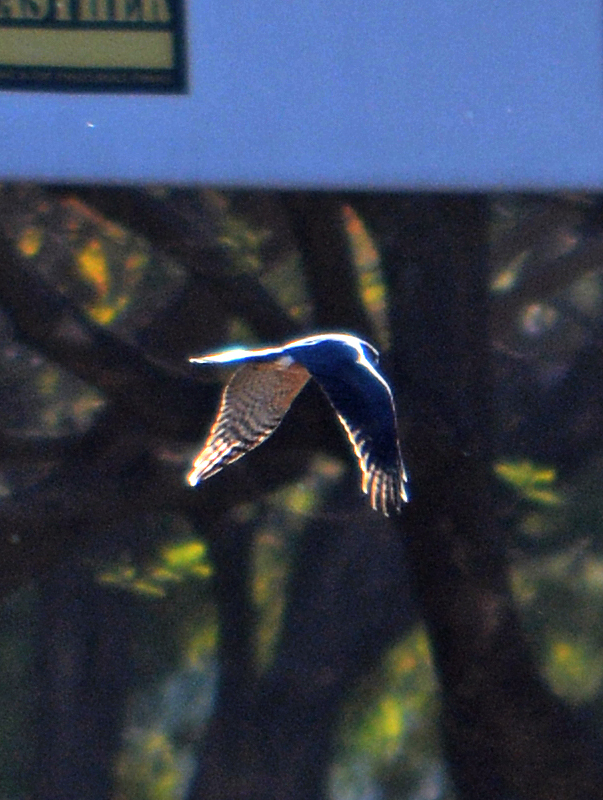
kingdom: Animalia
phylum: Chordata
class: Aves
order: Accipitriformes
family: Accipitridae
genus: Accipiter
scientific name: Accipiter cooperii
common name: Cooper's hawk
